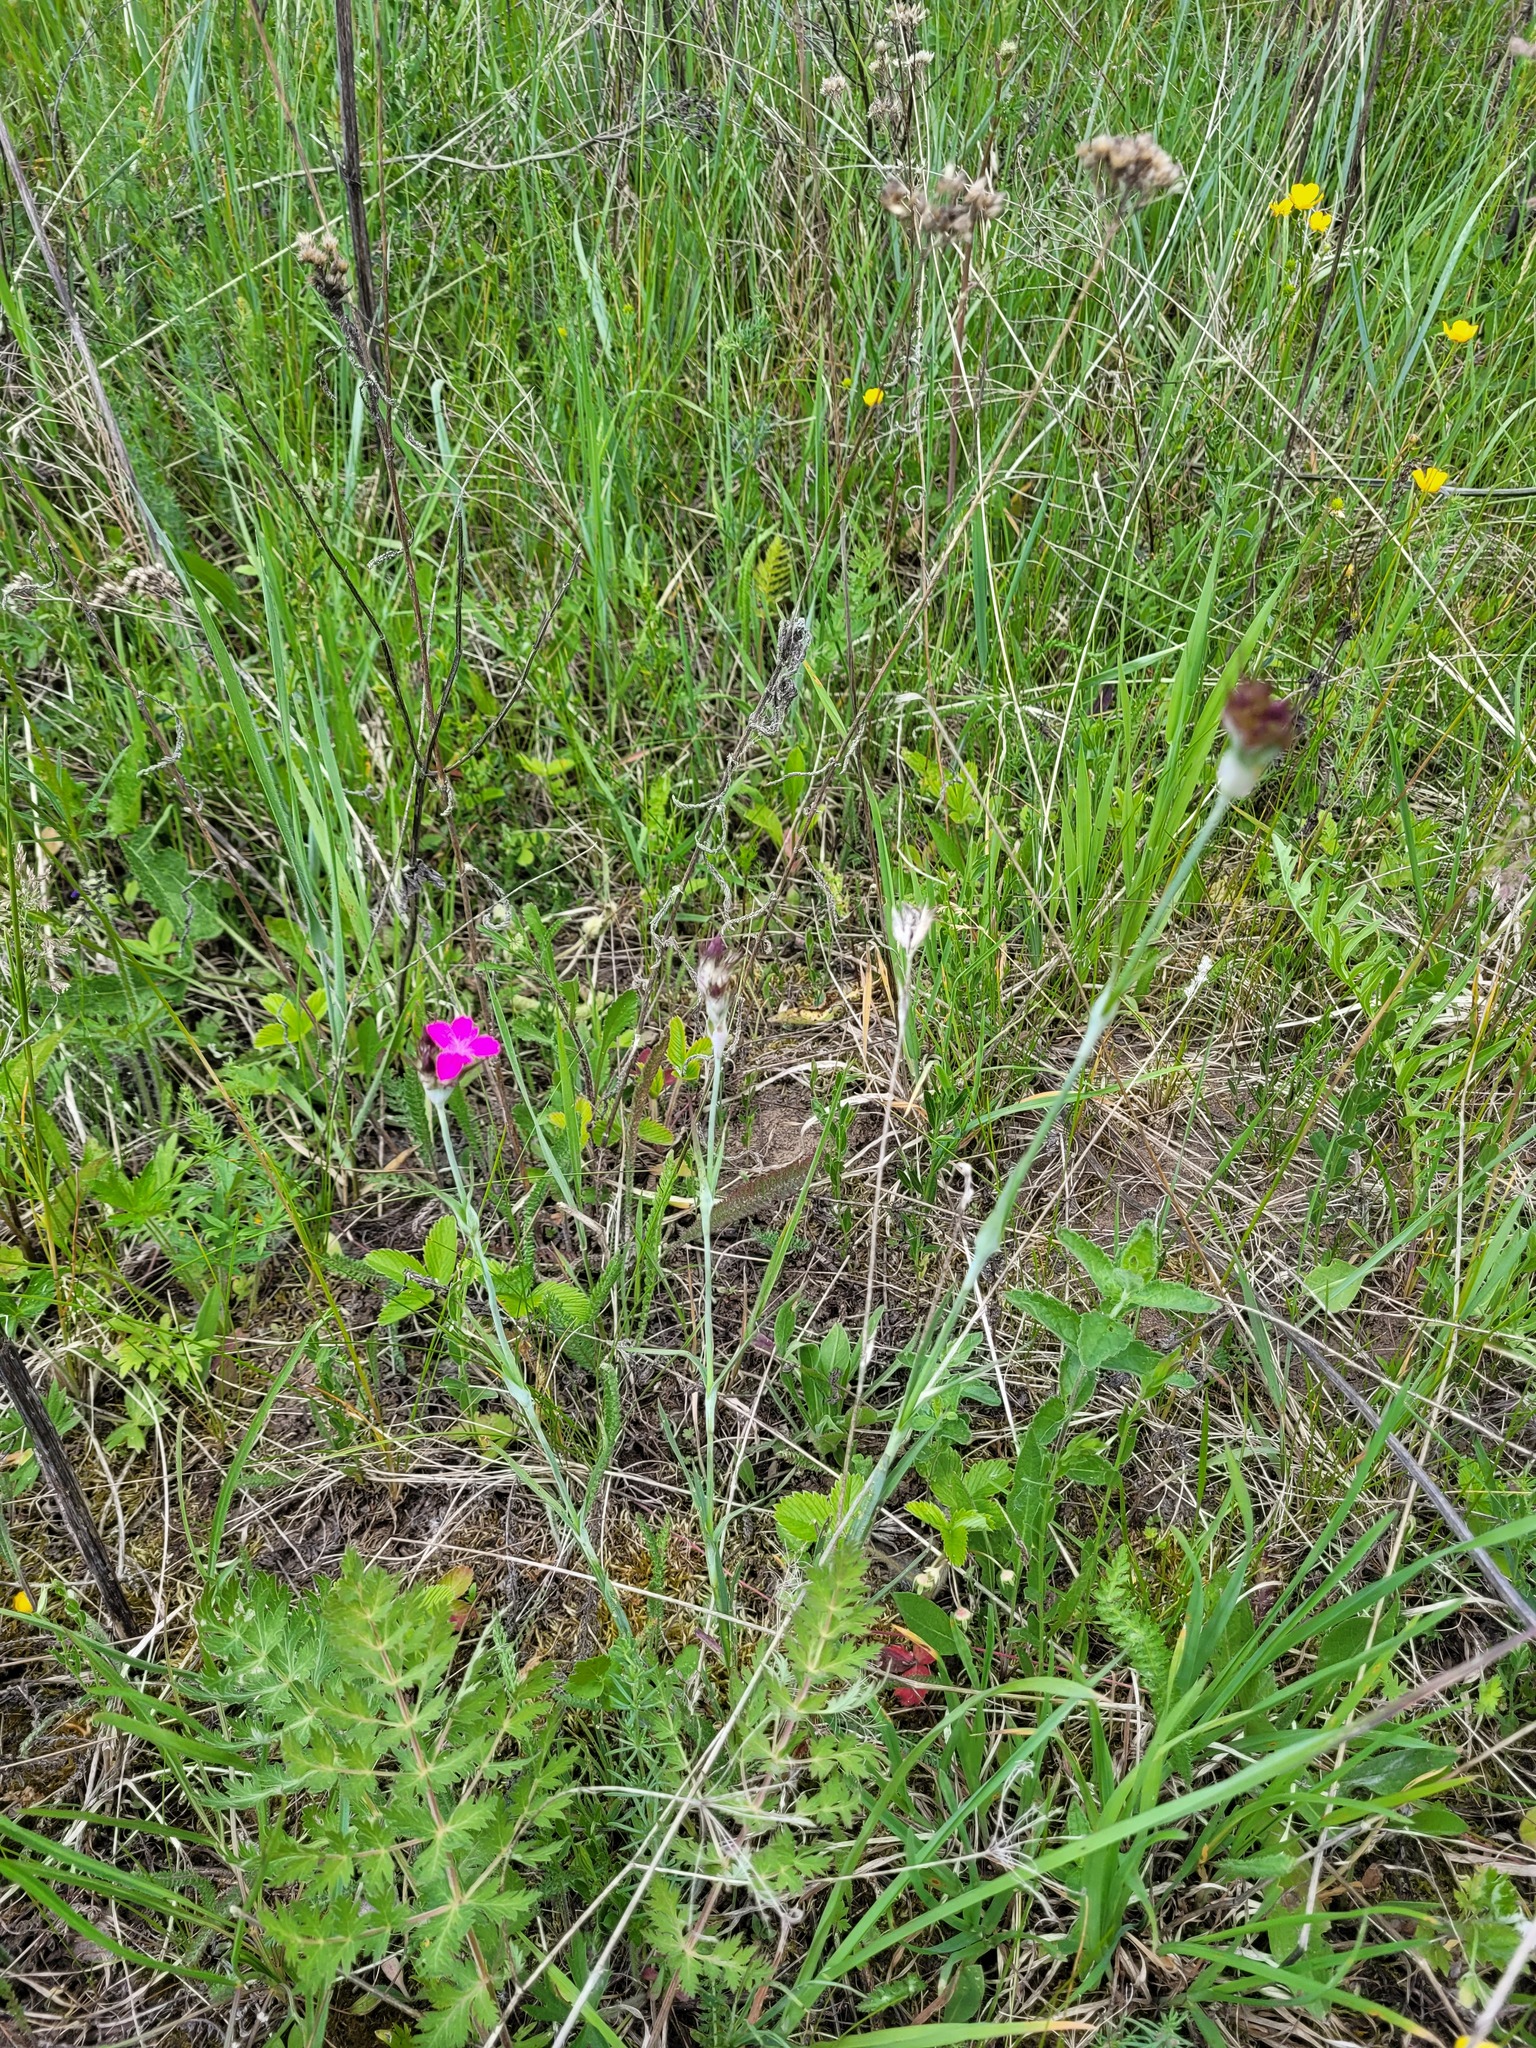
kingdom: Plantae
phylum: Tracheophyta
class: Magnoliopsida
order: Caryophyllales
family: Caryophyllaceae
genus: Dianthus
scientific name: Dianthus capitatus
